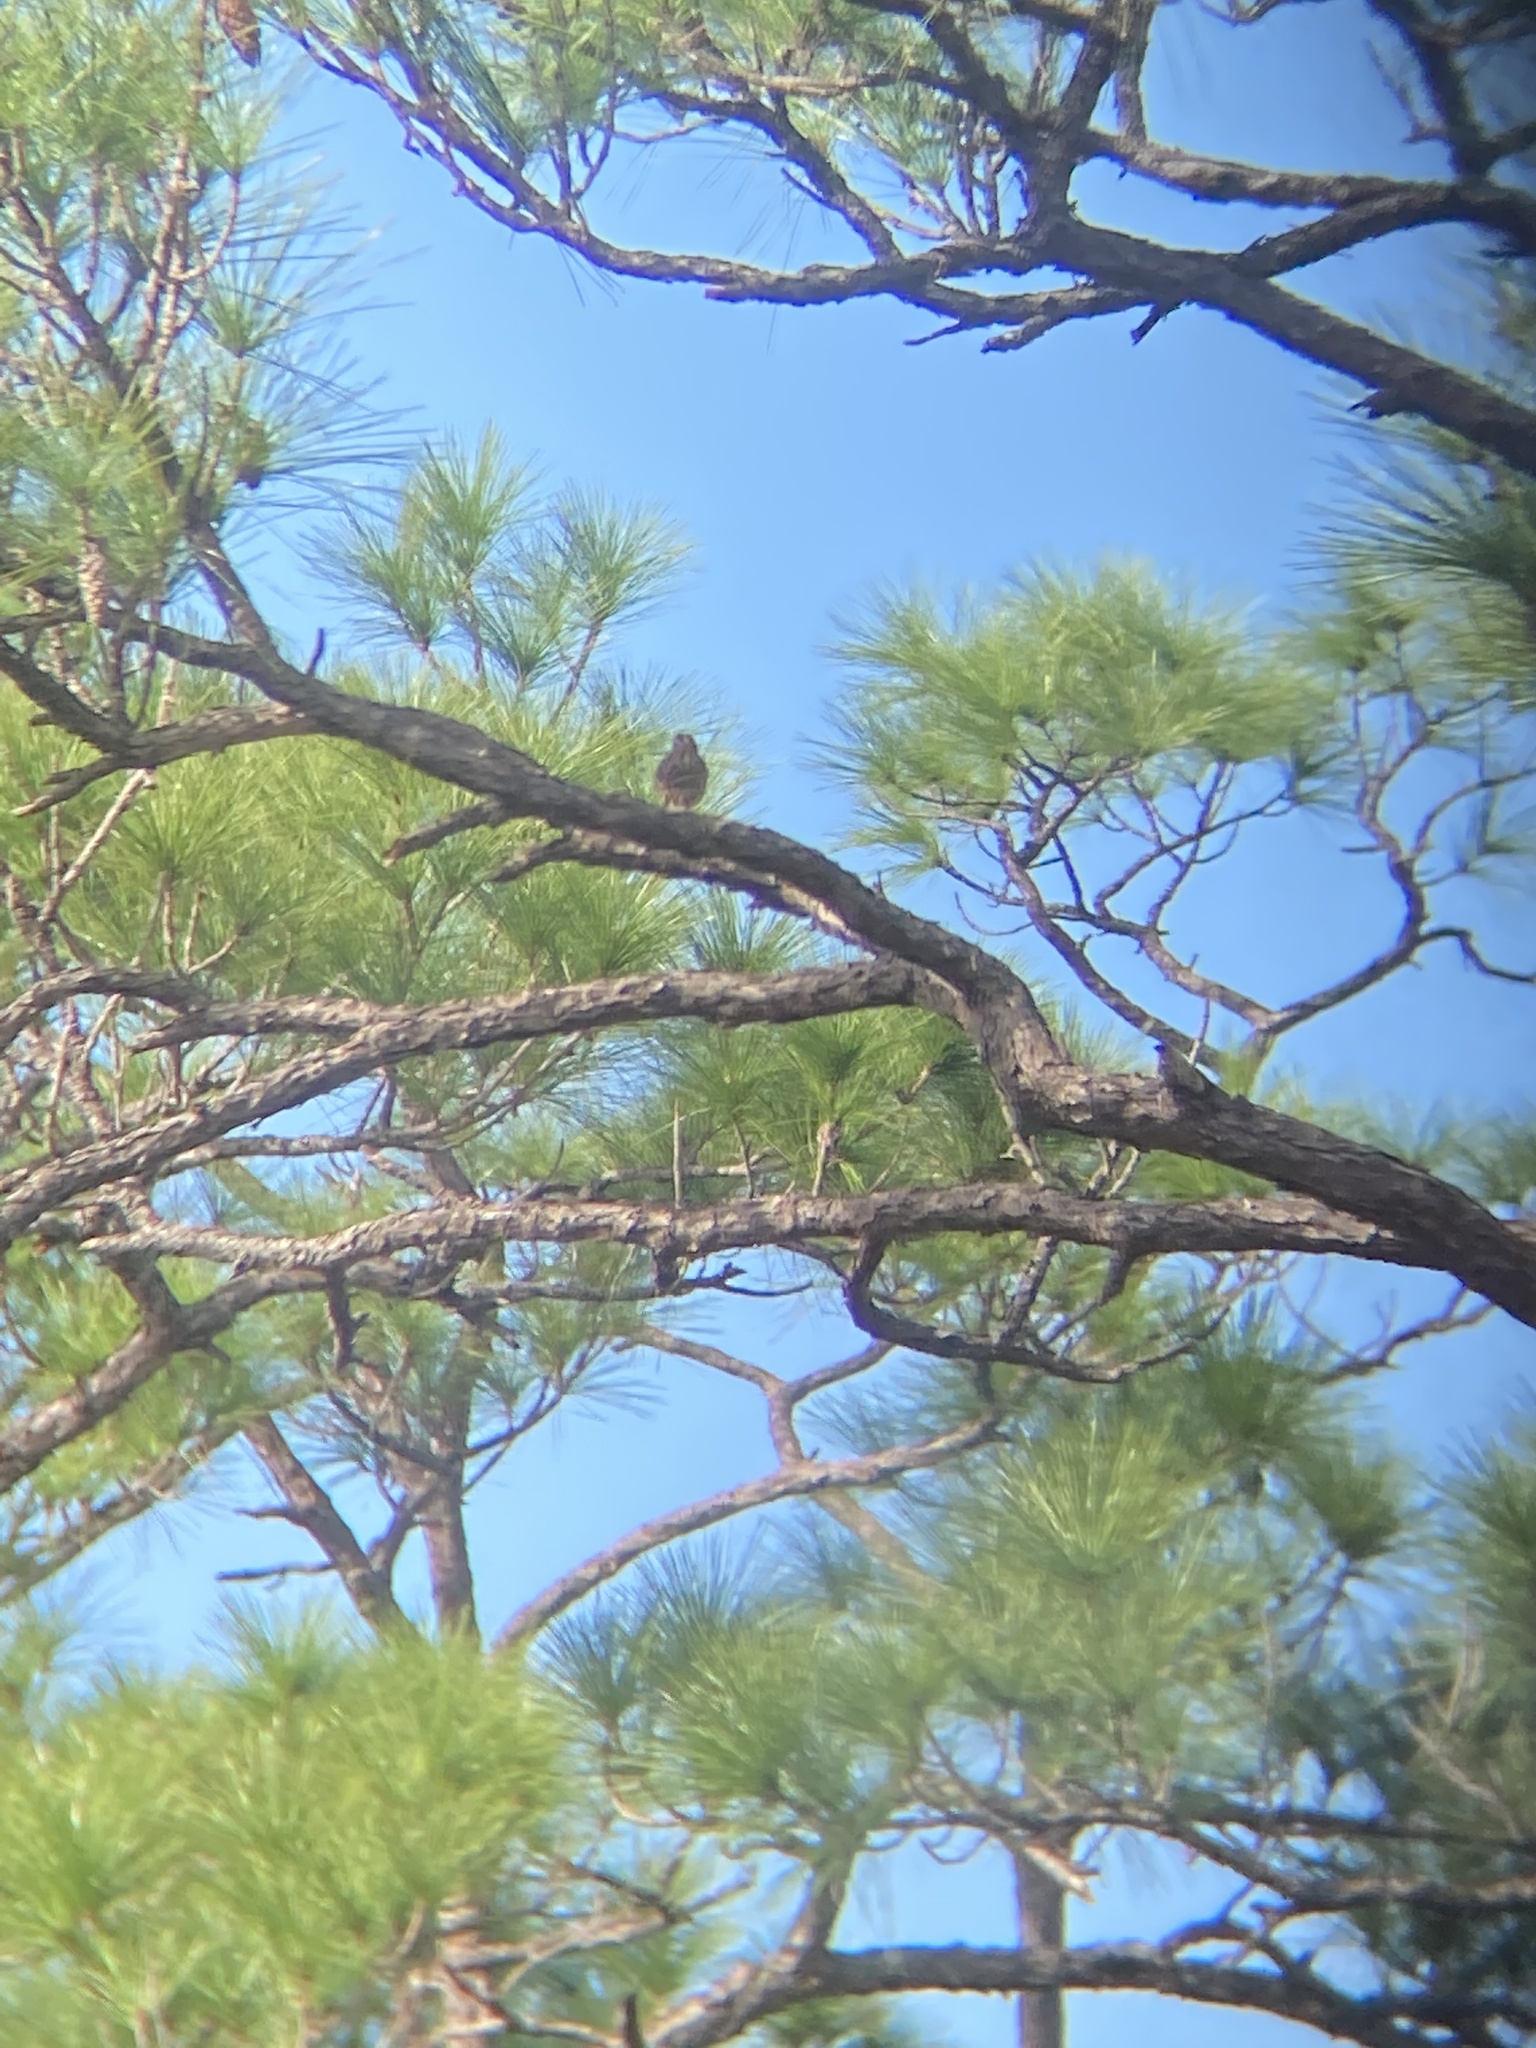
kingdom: Animalia
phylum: Chordata
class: Aves
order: Passeriformes
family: Passerellidae
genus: Peucaea
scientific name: Peucaea aestivalis
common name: Bachman's sparrow
